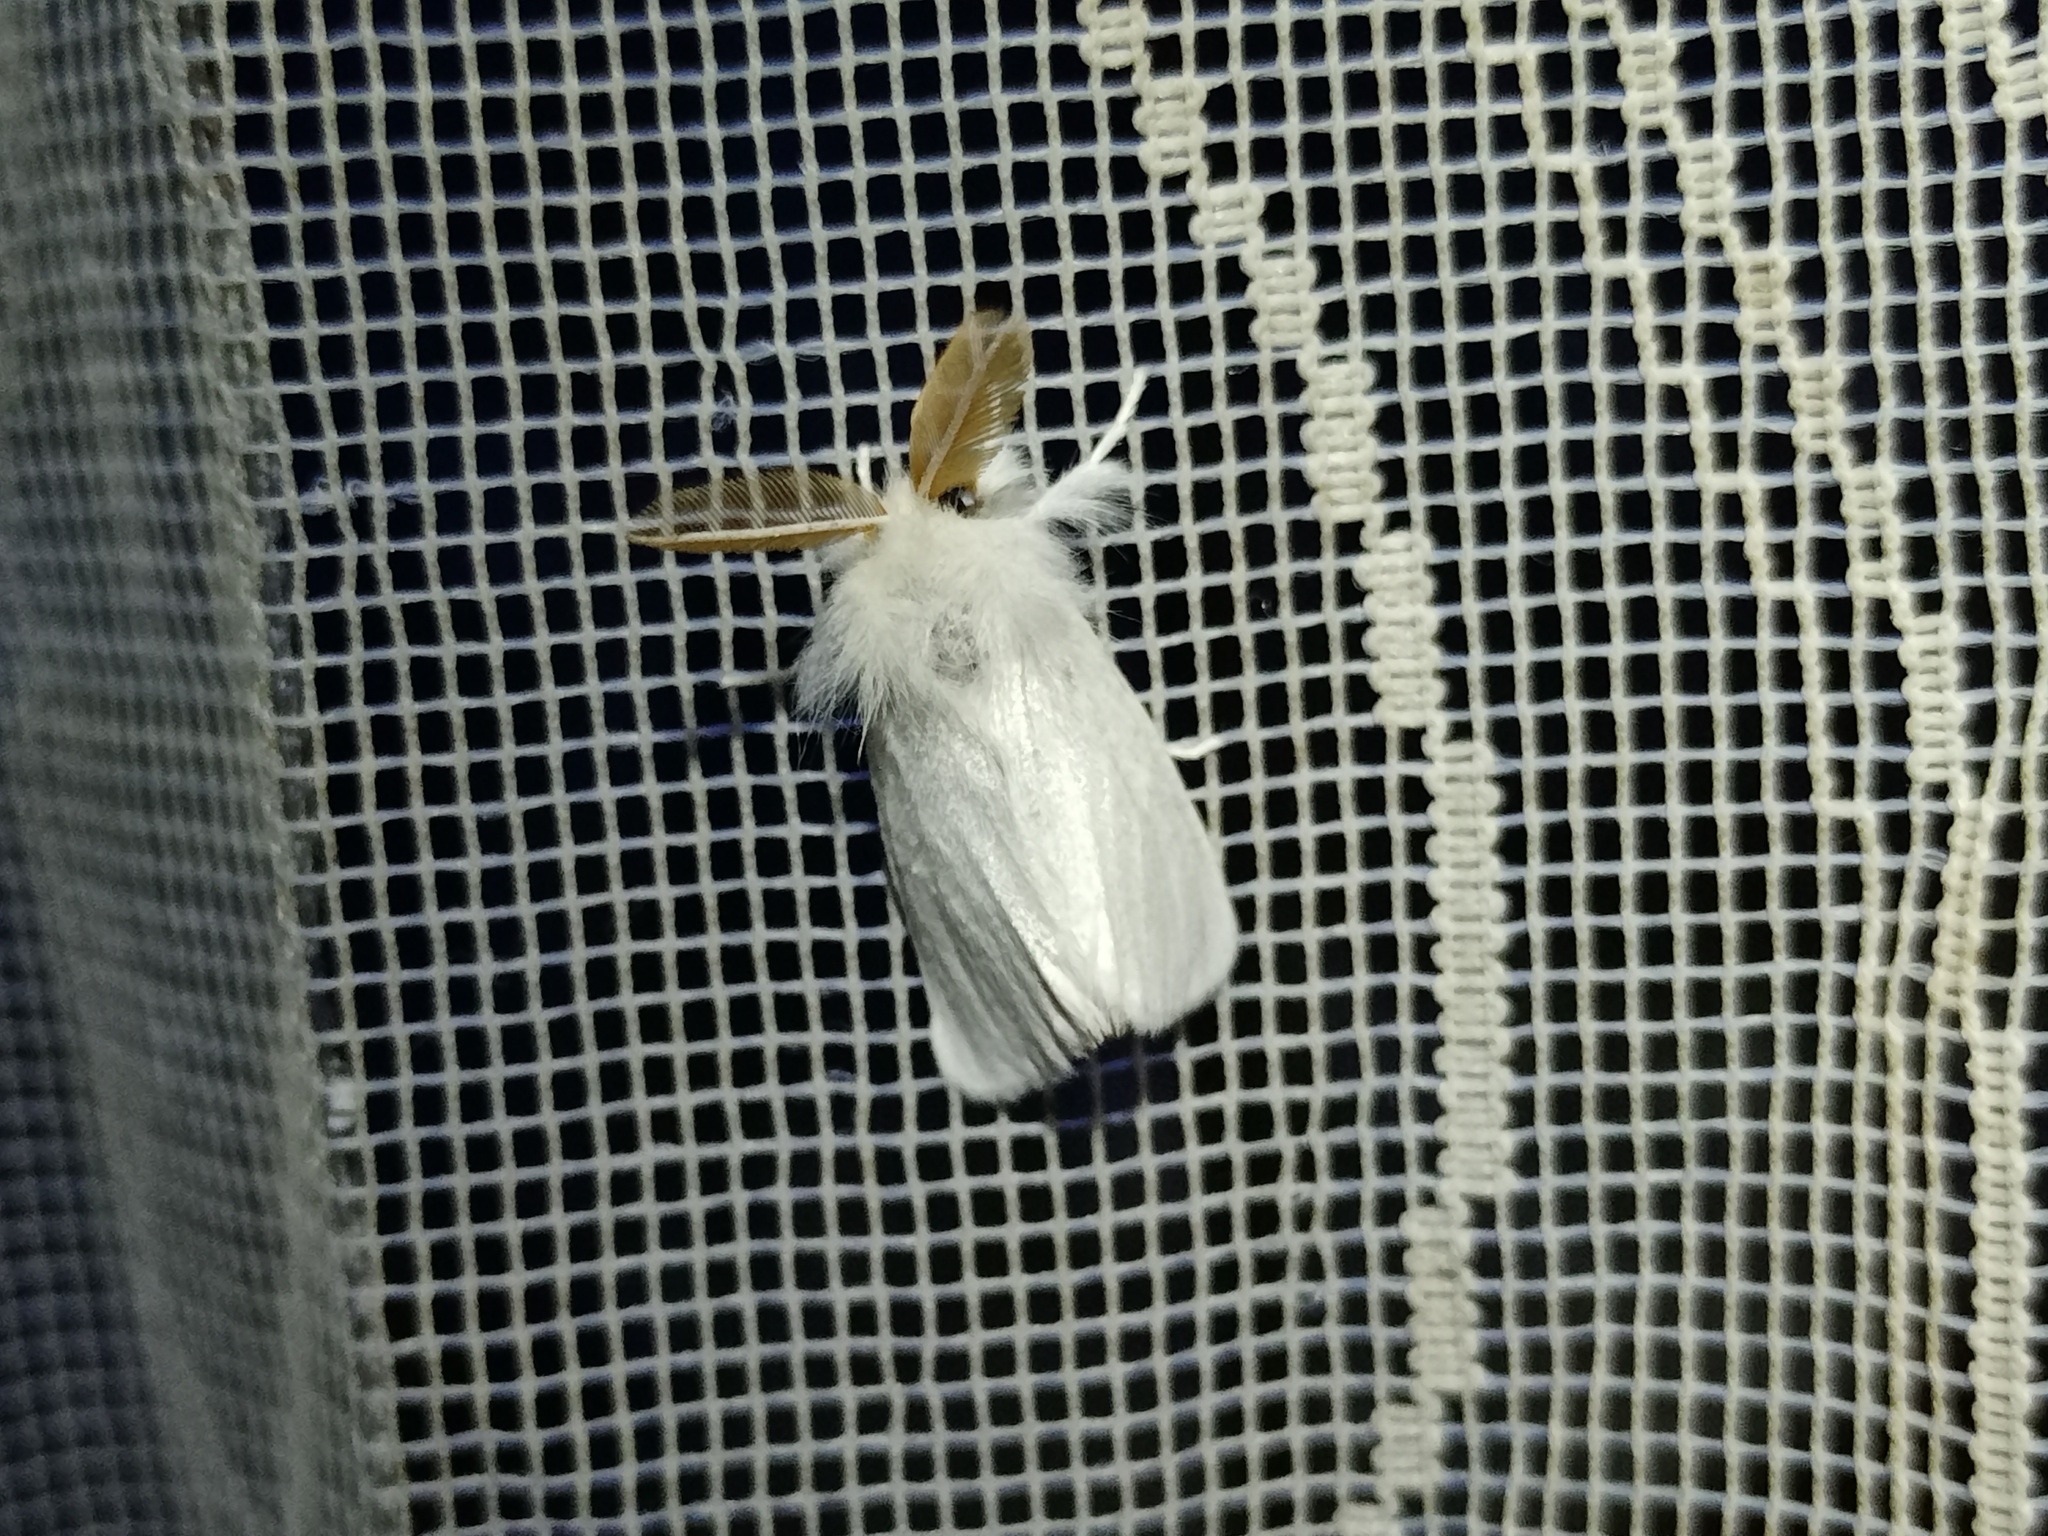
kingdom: Animalia
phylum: Arthropoda
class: Insecta
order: Lepidoptera
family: Erebidae
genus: Euproctis
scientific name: Euproctis chrysorrhoea
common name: Brown-tail
